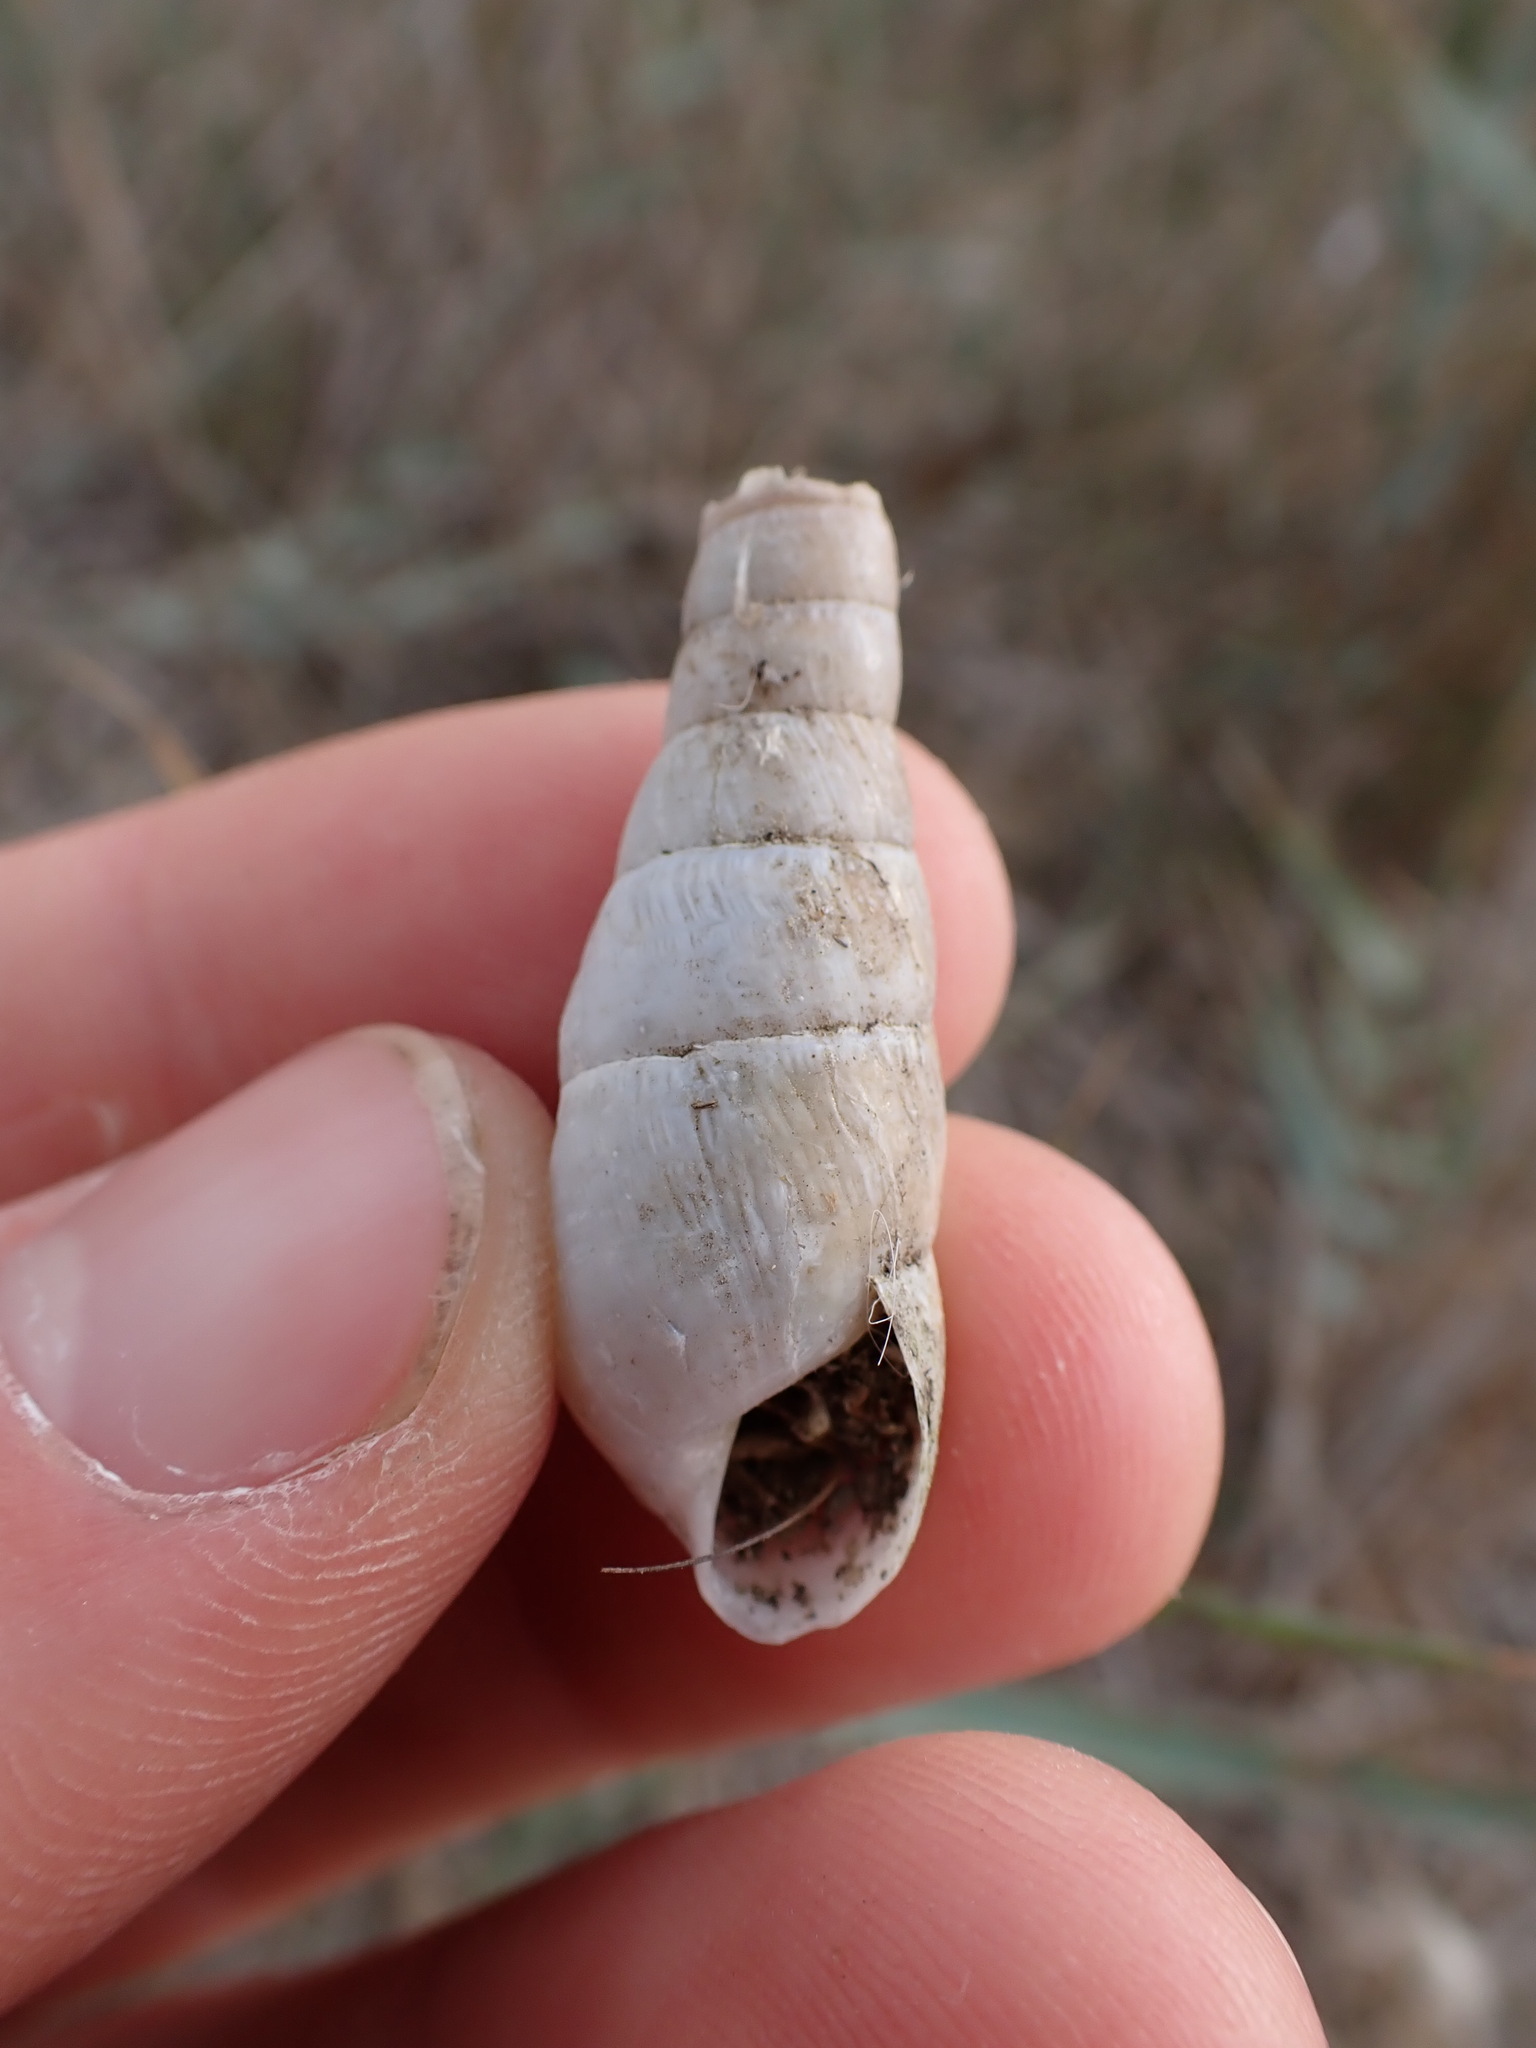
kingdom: Animalia
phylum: Mollusca
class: Gastropoda
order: Stylommatophora
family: Achatinidae
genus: Rumina
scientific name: Rumina decollata
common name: Decollate snail
